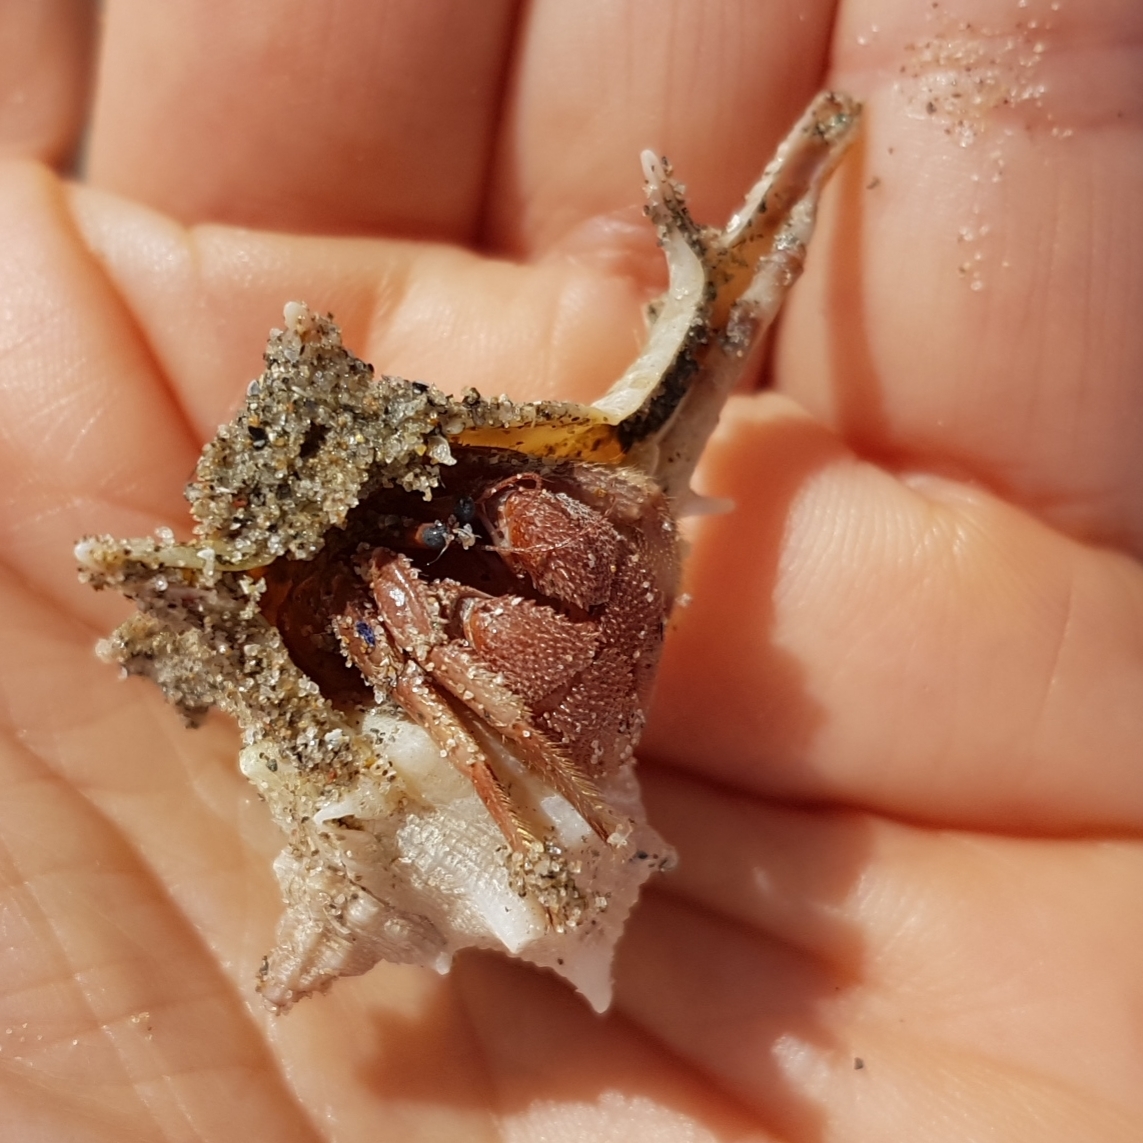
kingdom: Animalia
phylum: Arthropoda
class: Malacostraca
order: Decapoda
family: Diogenidae
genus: Paguristes
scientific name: Paguristes eremita
